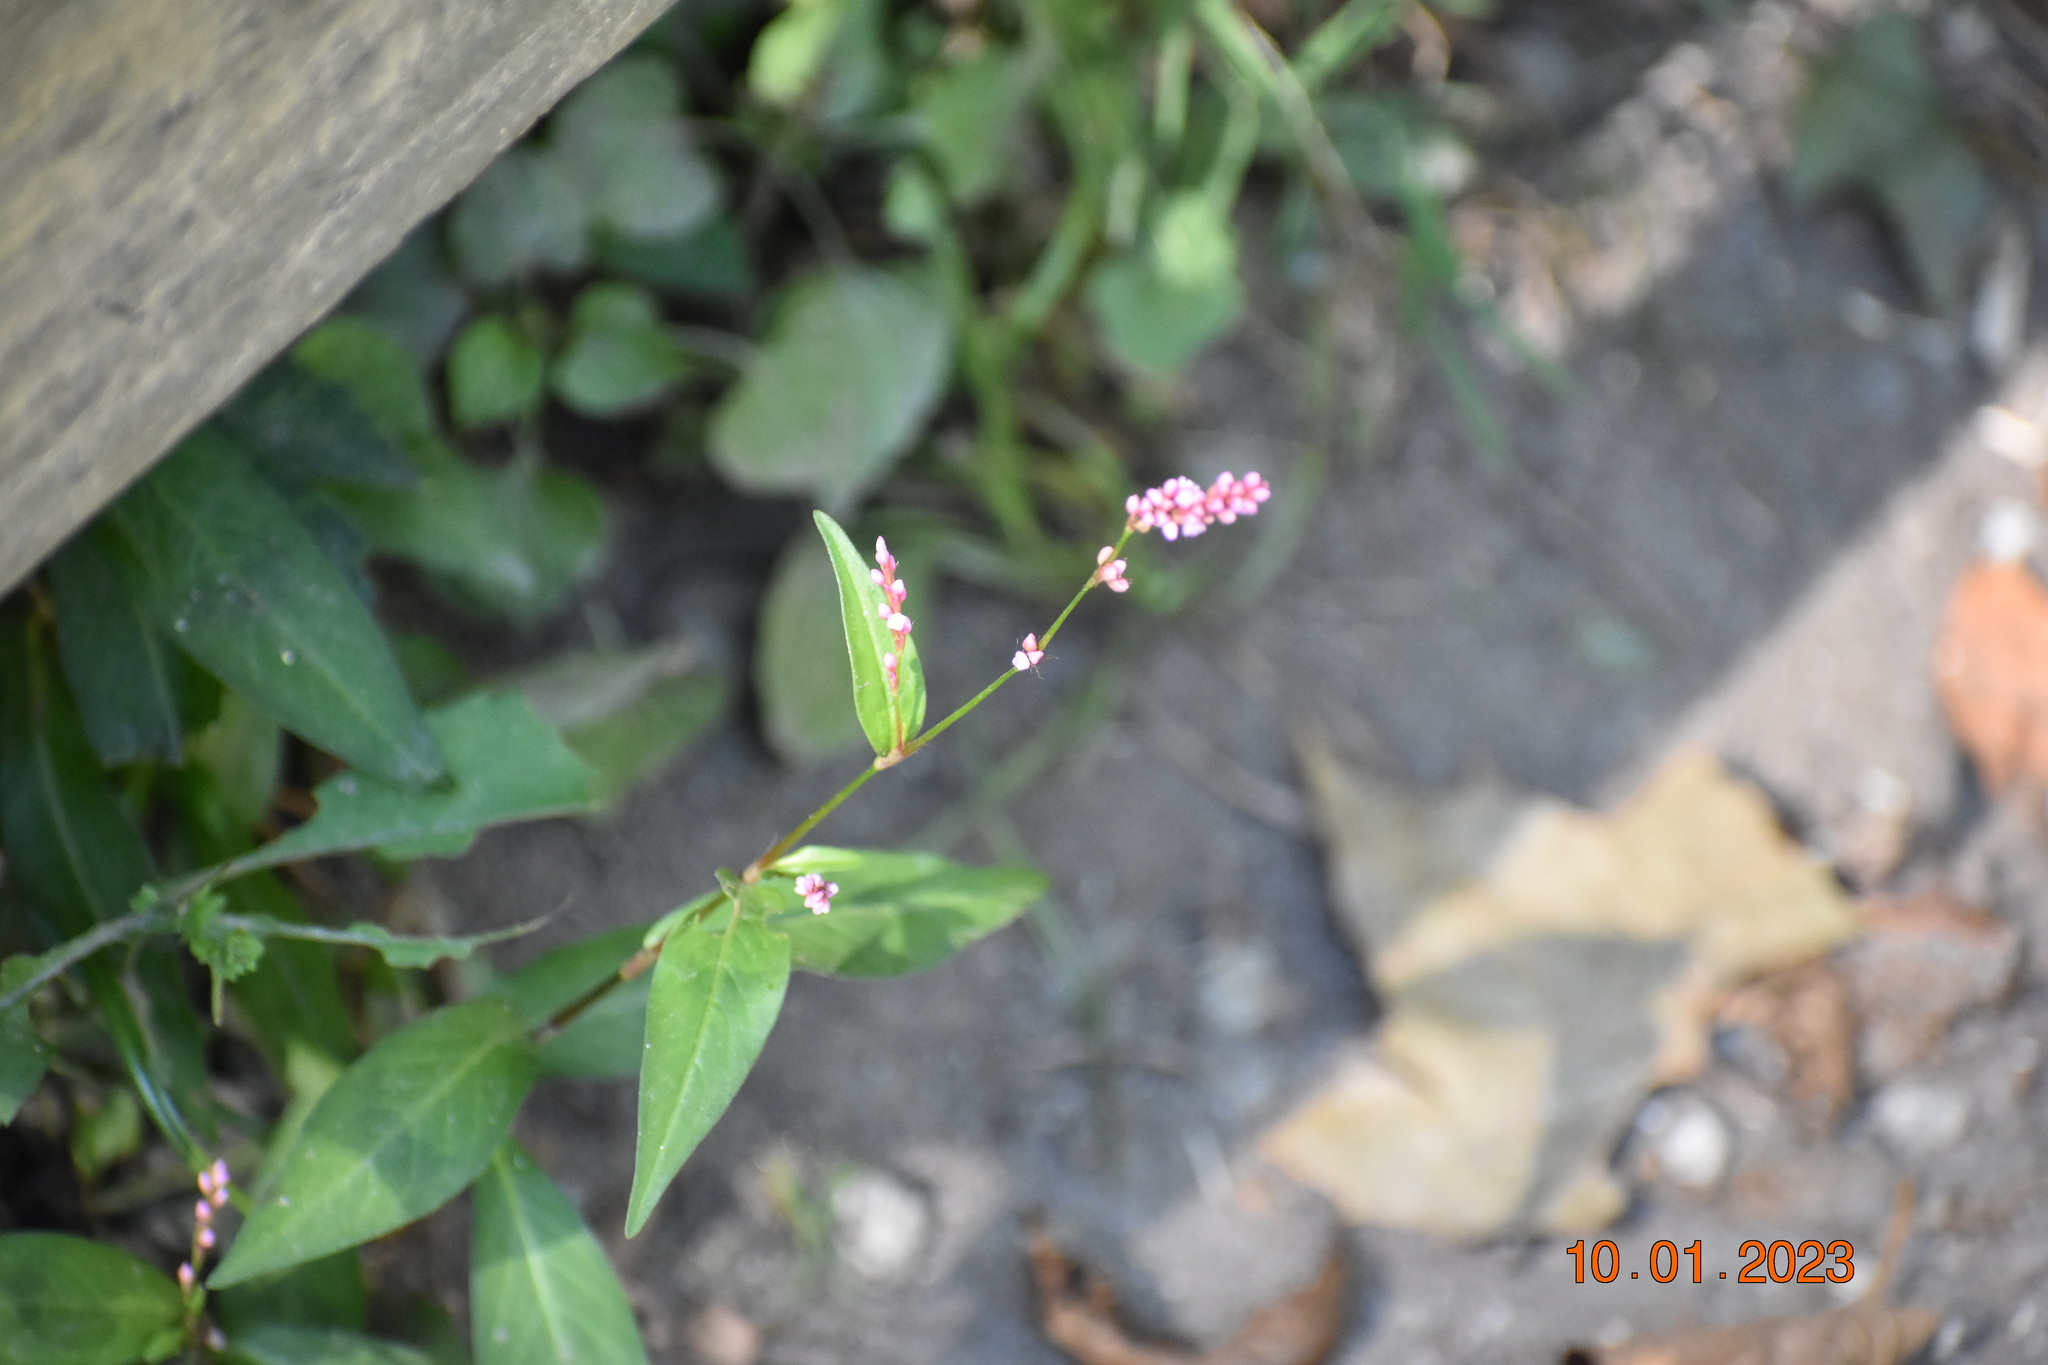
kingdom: Plantae
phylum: Tracheophyta
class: Magnoliopsida
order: Caryophyllales
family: Polygonaceae
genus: Persicaria
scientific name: Persicaria longiseta
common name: Bristly lady's-thumb
